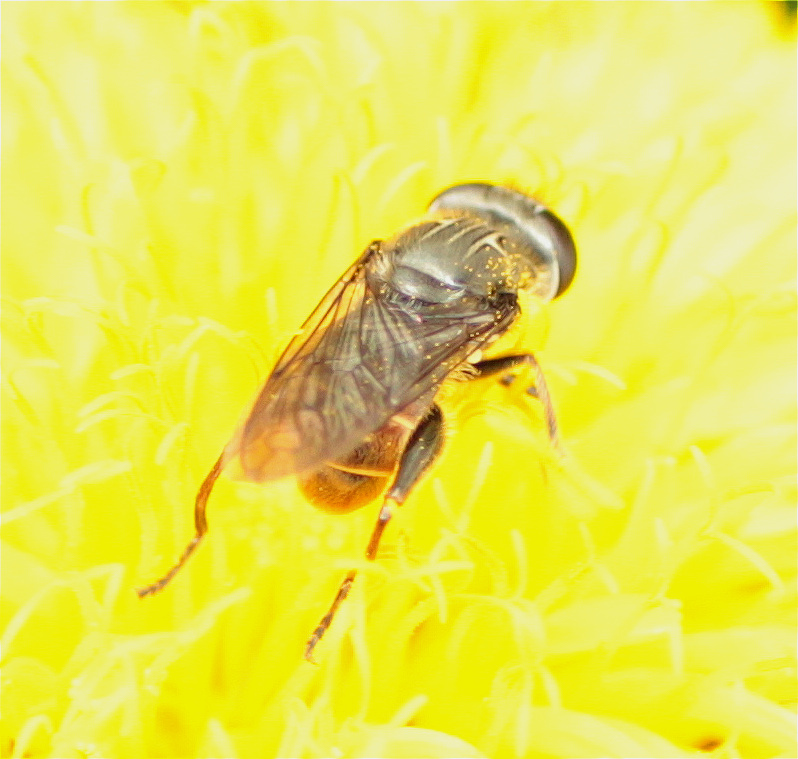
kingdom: Animalia
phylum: Arthropoda
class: Insecta
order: Diptera
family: Syrphidae
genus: Asemosyrphus
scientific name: Asemosyrphus
